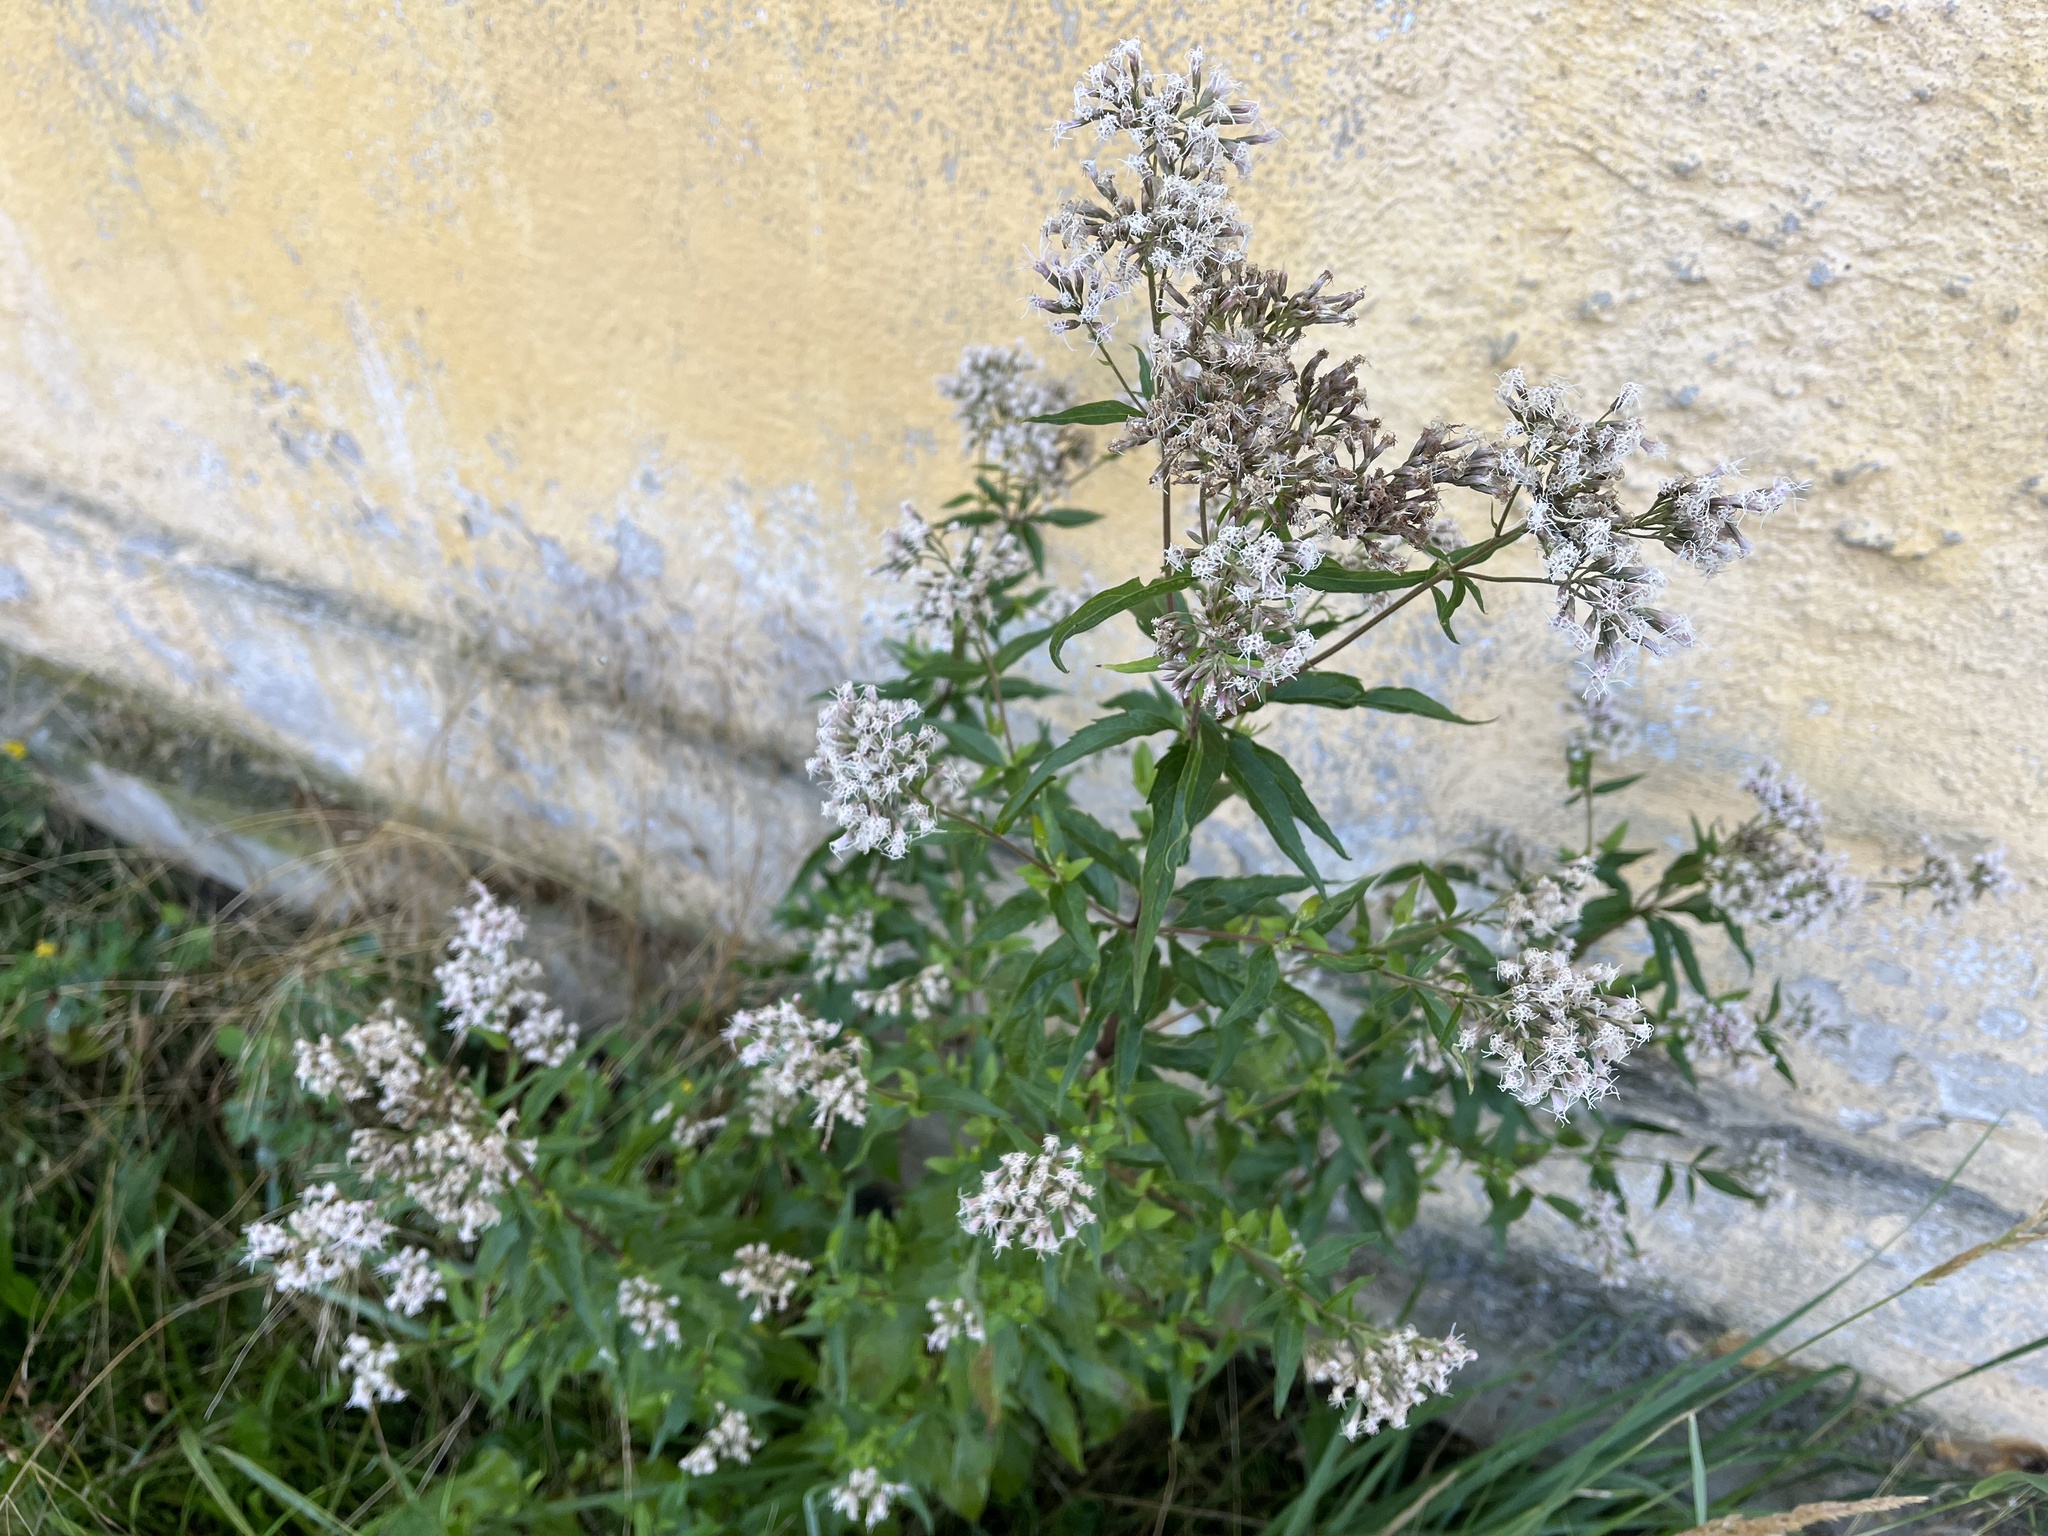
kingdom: Plantae
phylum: Tracheophyta
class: Magnoliopsida
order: Asterales
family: Asteraceae
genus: Eupatorium
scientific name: Eupatorium cannabinum
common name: Hemp-agrimony
